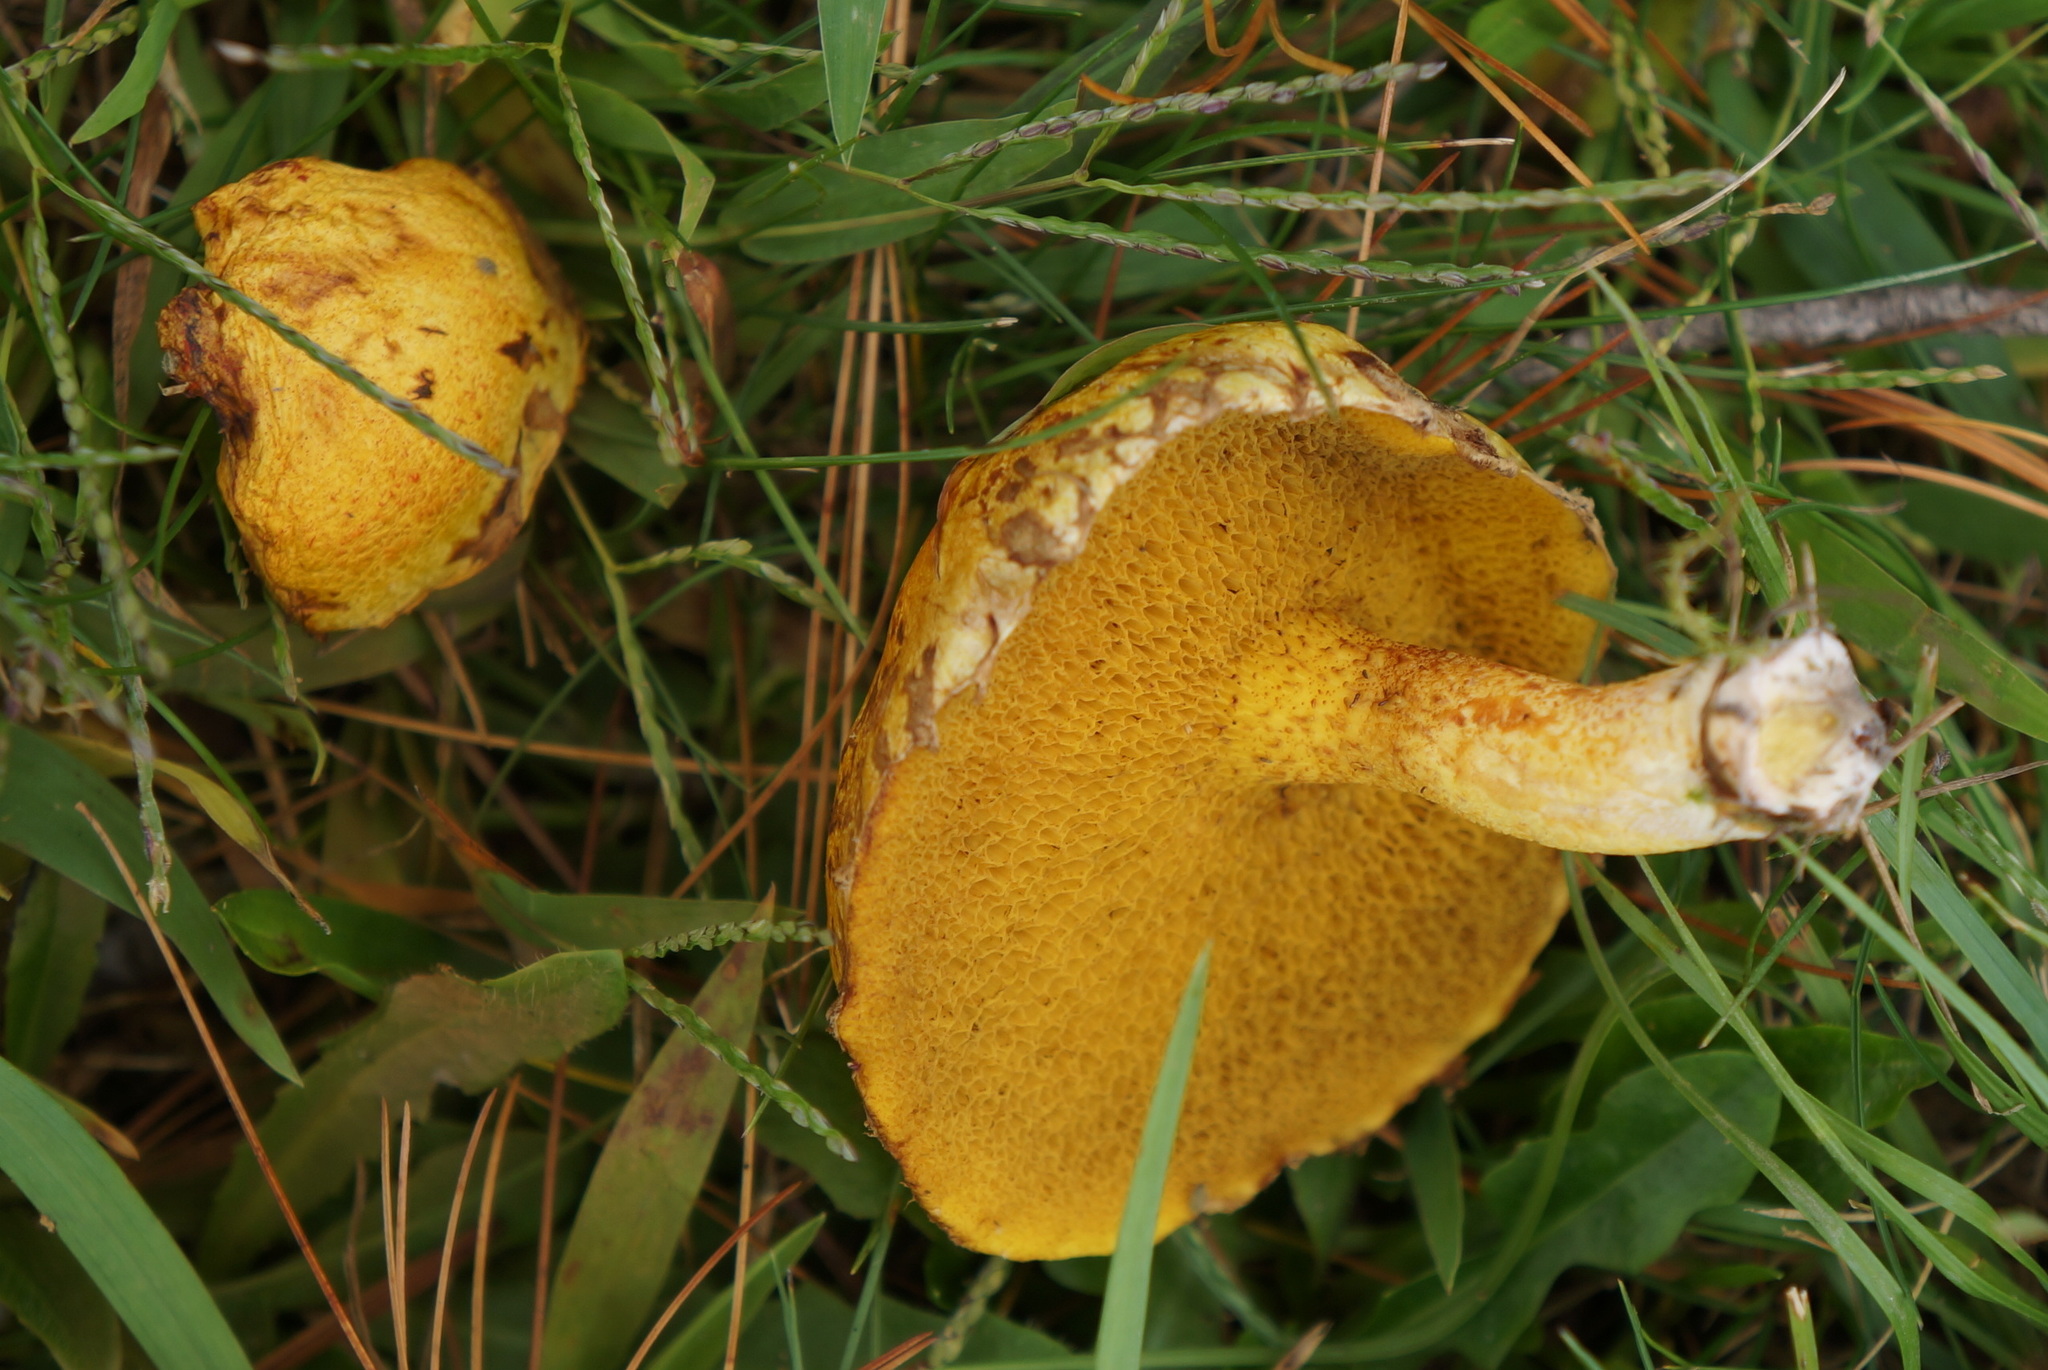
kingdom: Fungi
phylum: Basidiomycota
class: Agaricomycetes
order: Boletales
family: Suillaceae
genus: Suillus
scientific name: Suillus americanus
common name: Chicken fat mushroom
